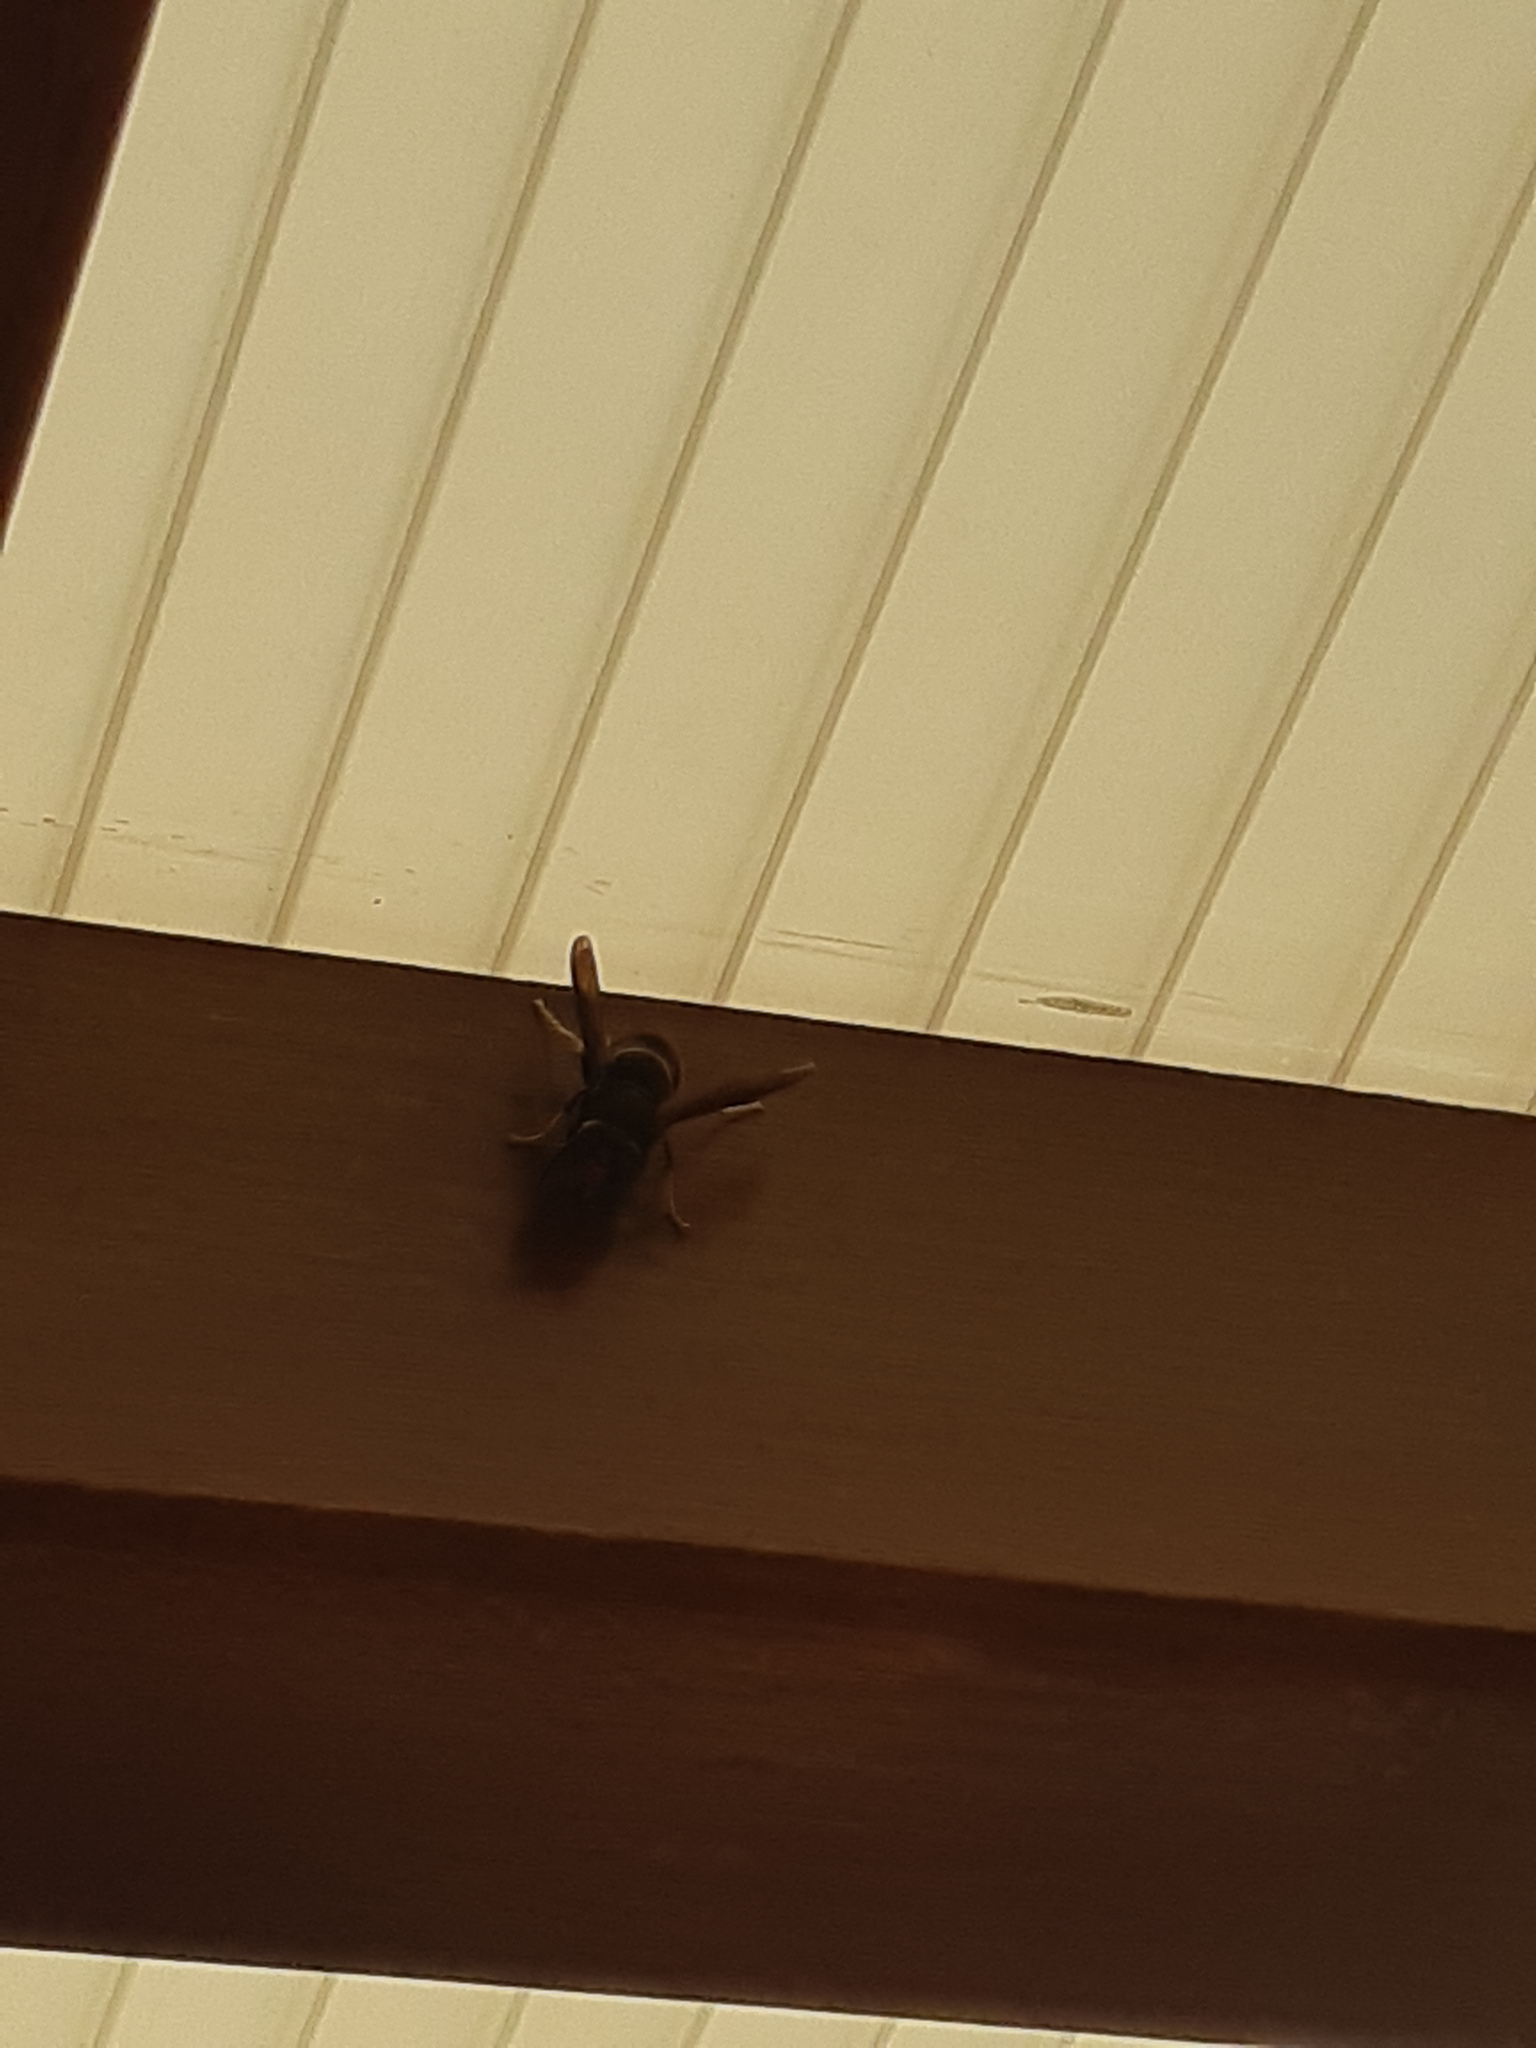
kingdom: Animalia
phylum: Arthropoda
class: Insecta
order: Hymenoptera
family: Vespidae
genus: Vespa
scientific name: Vespa velutina
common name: Asian hornet
